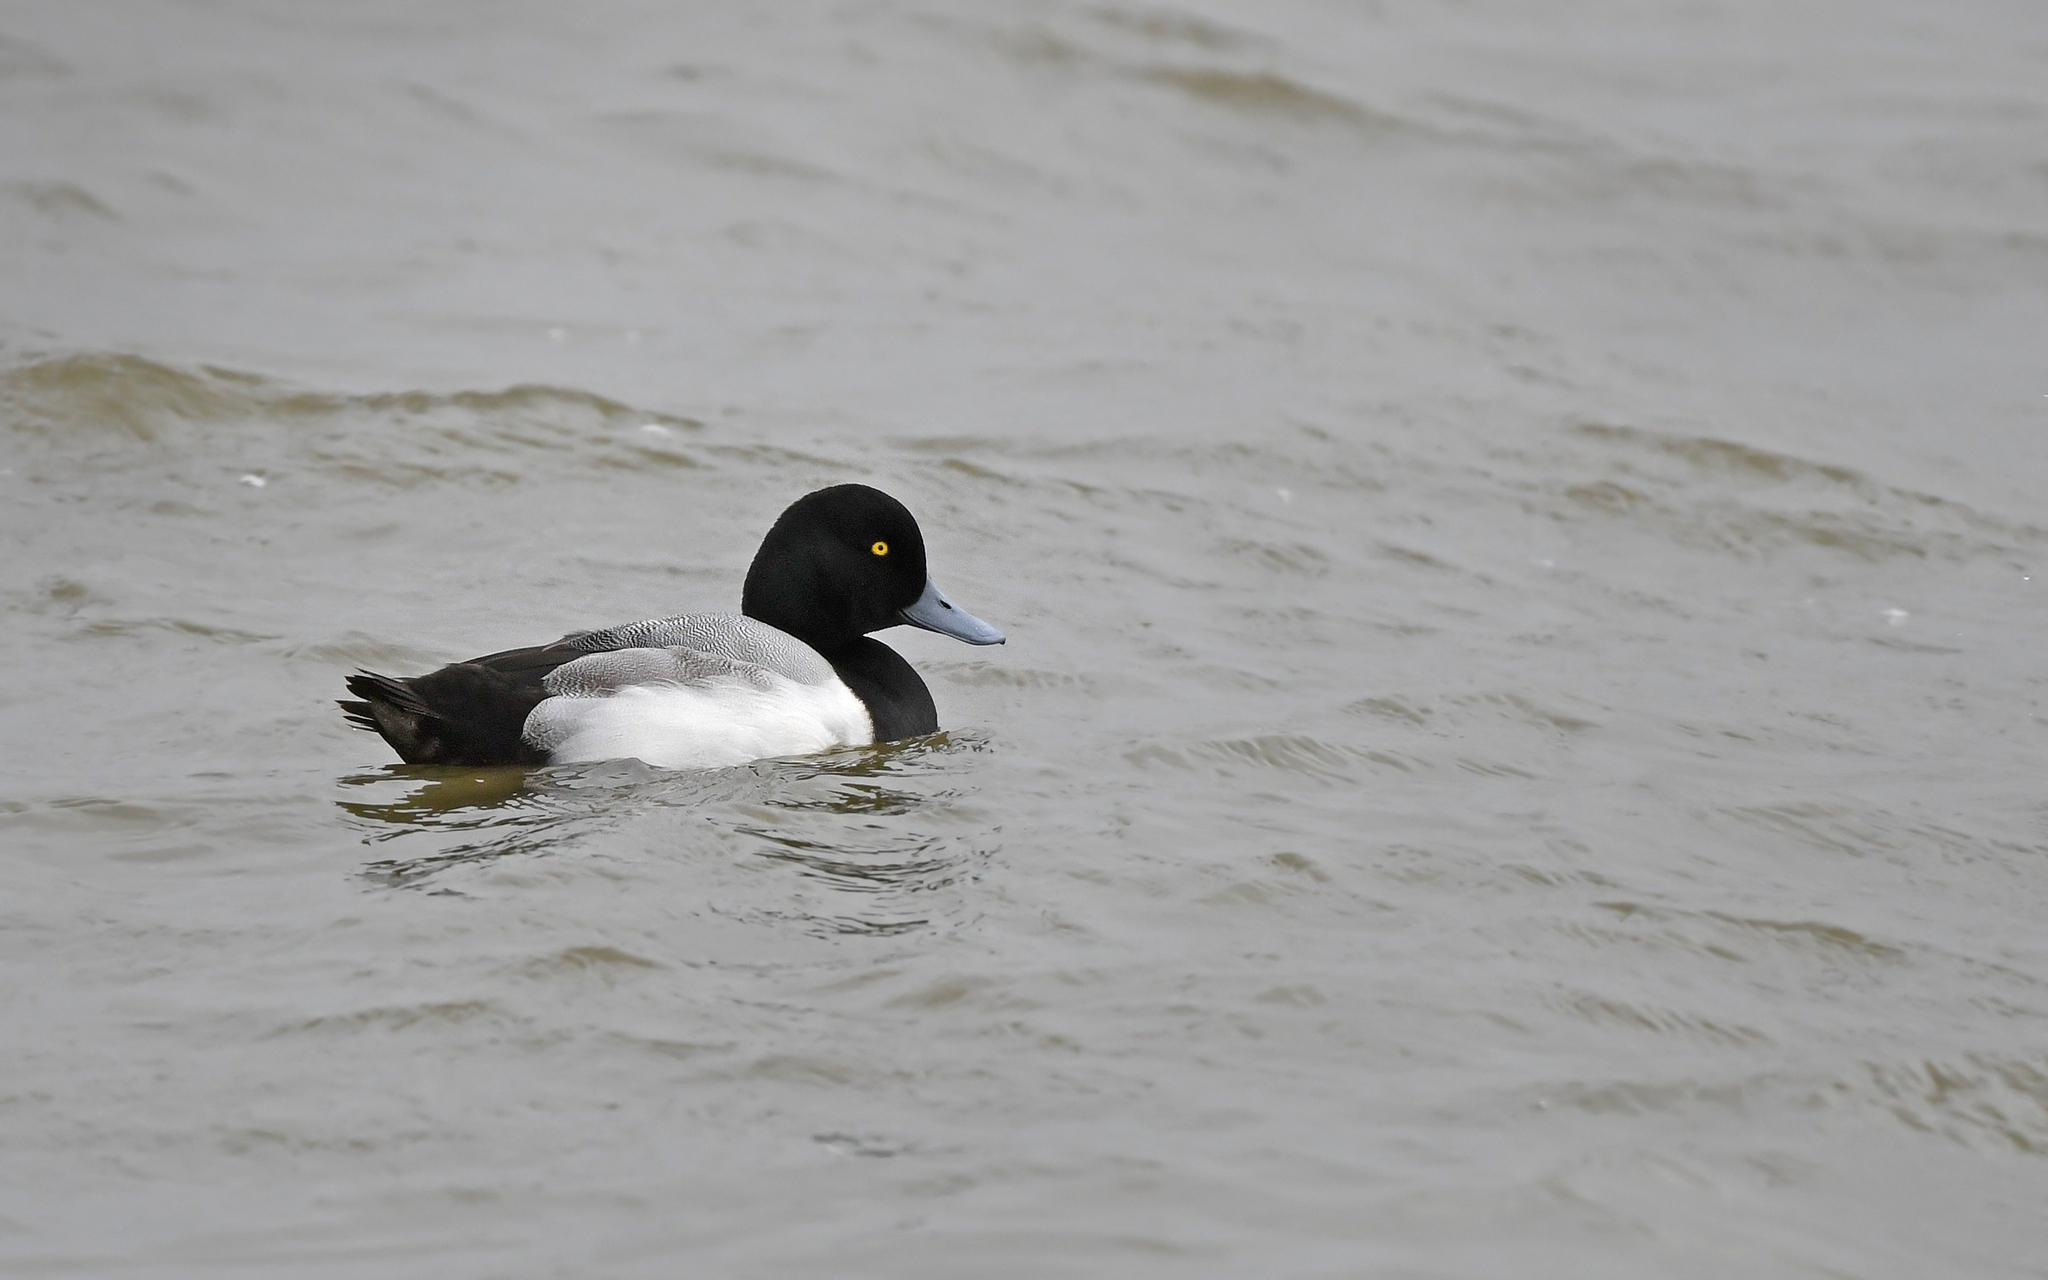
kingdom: Animalia
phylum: Chordata
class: Aves
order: Anseriformes
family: Anatidae
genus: Aythya
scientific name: Aythya marila
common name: Greater scaup
